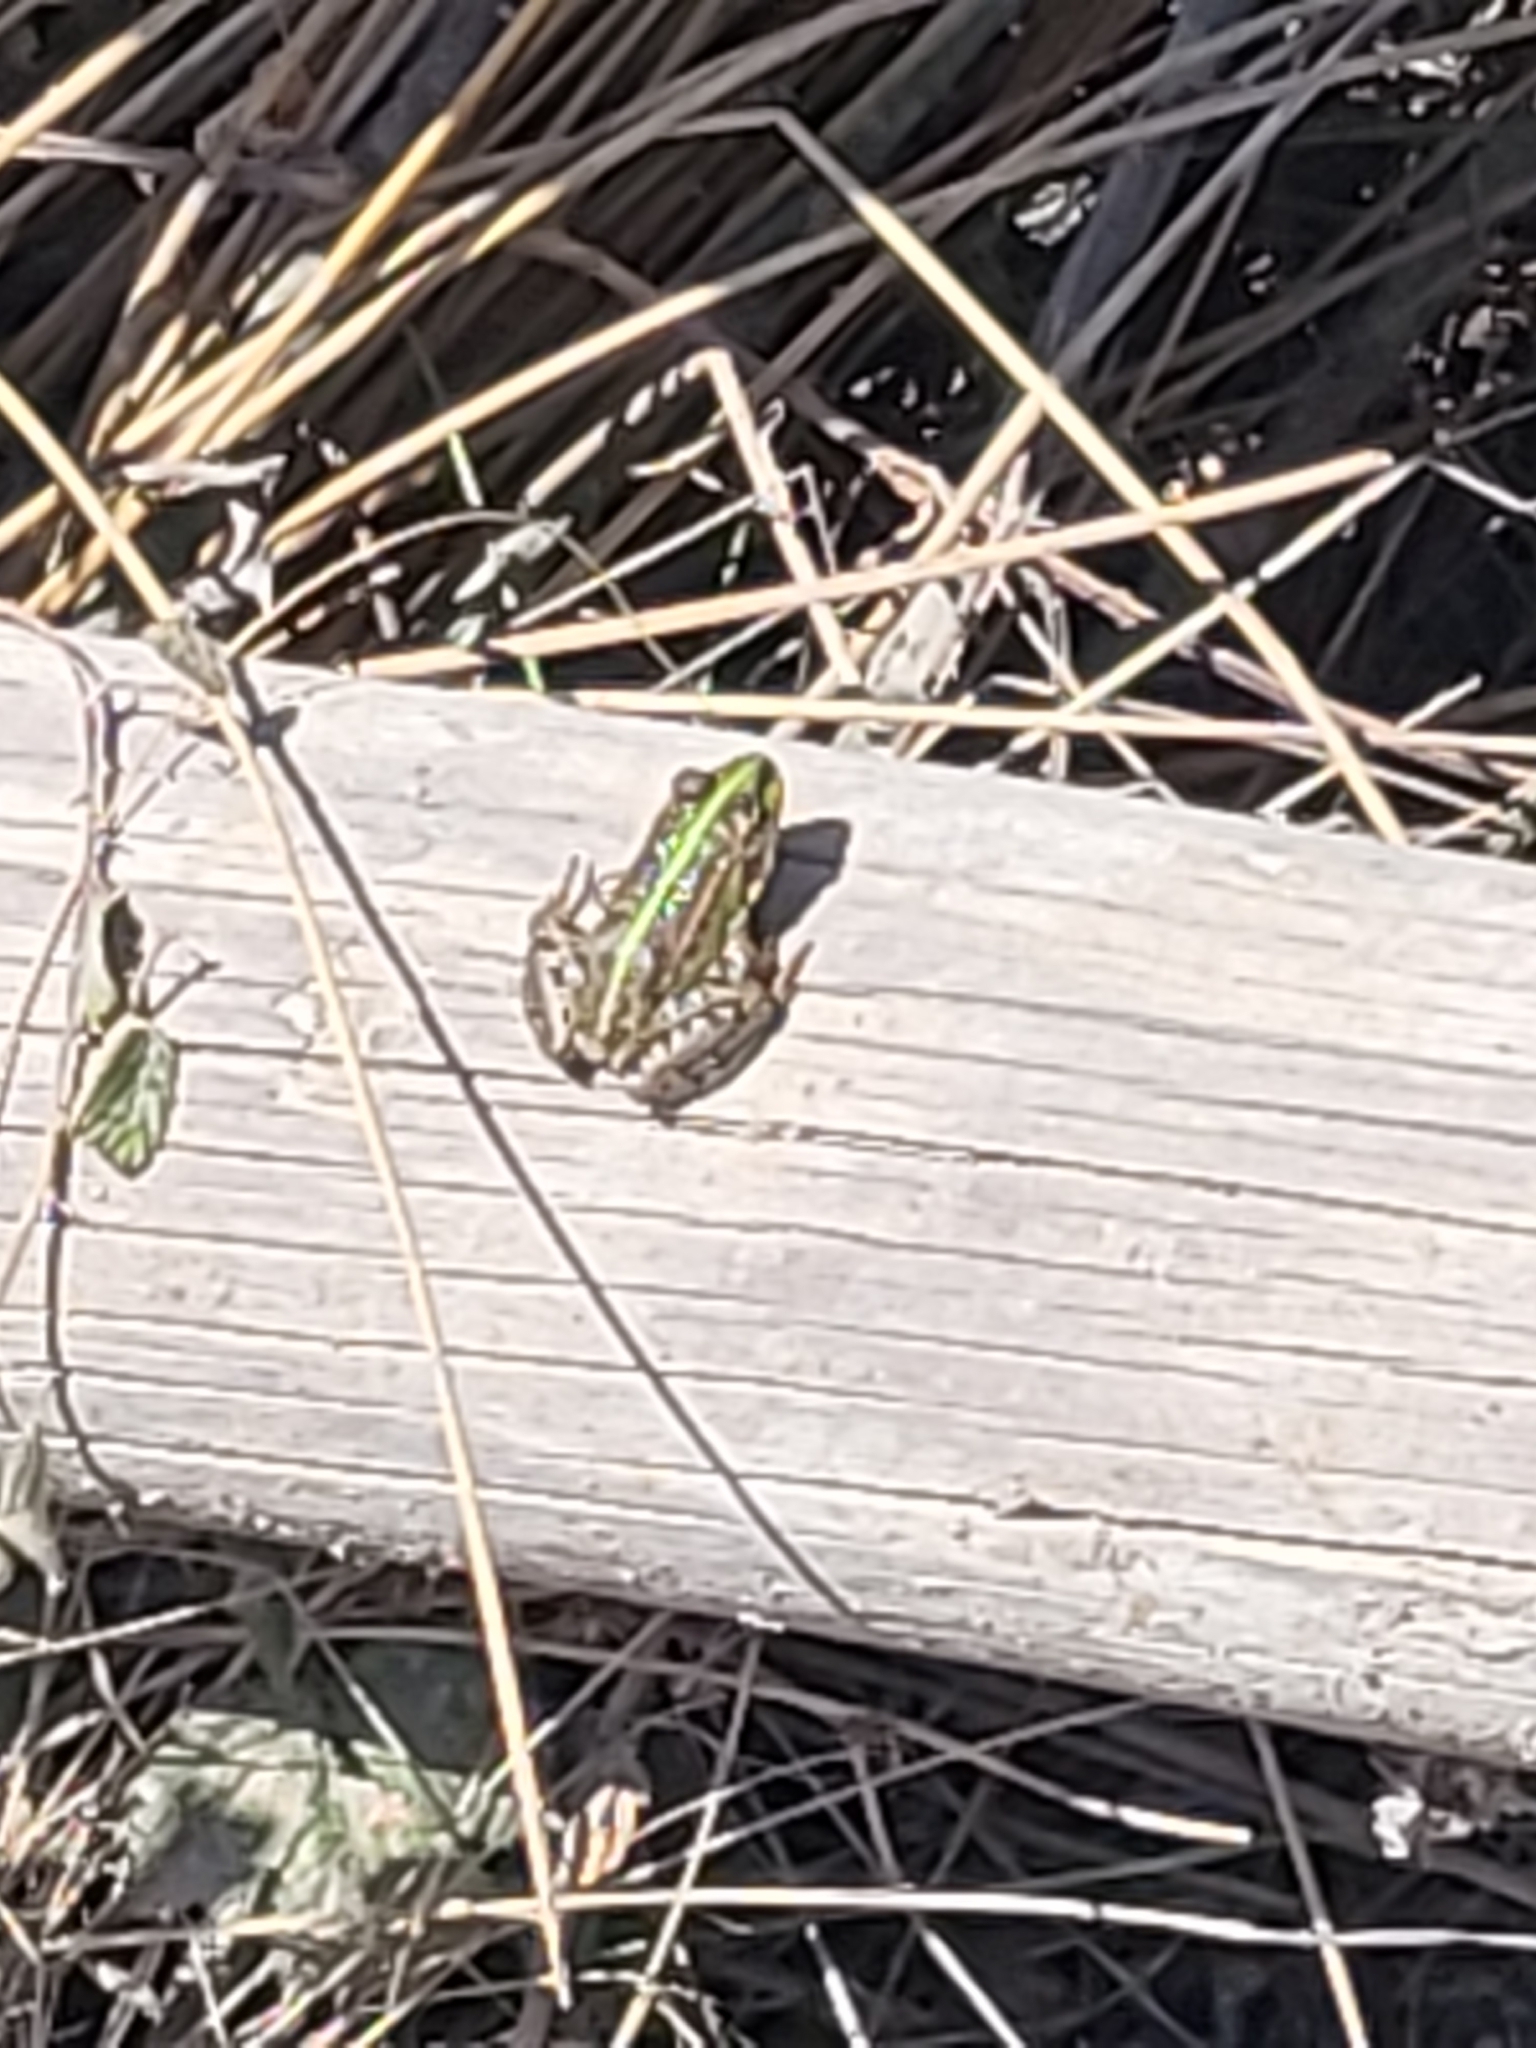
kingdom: Animalia
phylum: Chordata
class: Amphibia
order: Anura
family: Ranidae
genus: Pelophylax
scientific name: Pelophylax perezi
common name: Perez's frog
